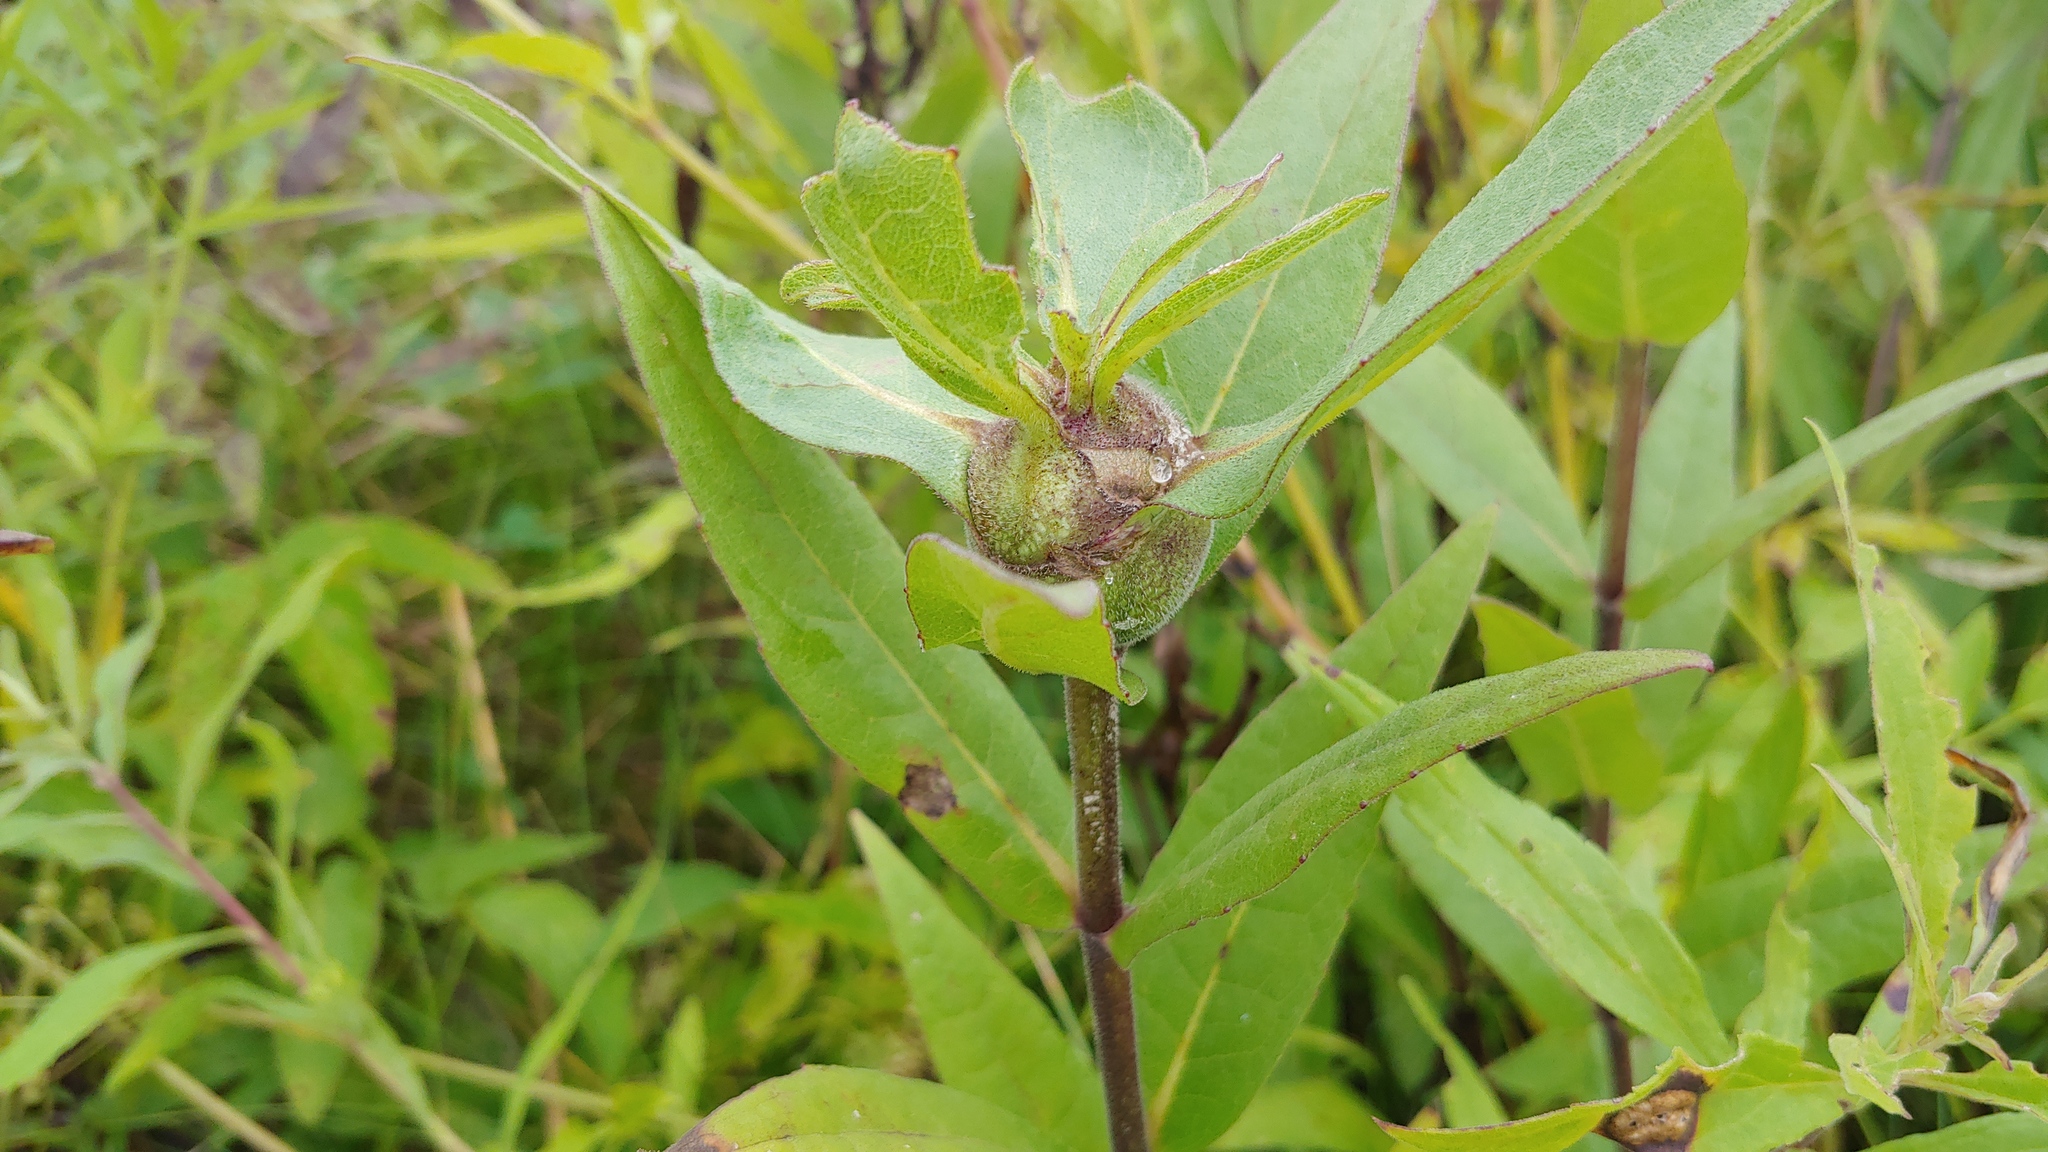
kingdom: Animalia
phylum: Arthropoda
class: Insecta
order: Hymenoptera
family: Cynipidae
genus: Antistrophus
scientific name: Antistrophus silphii
